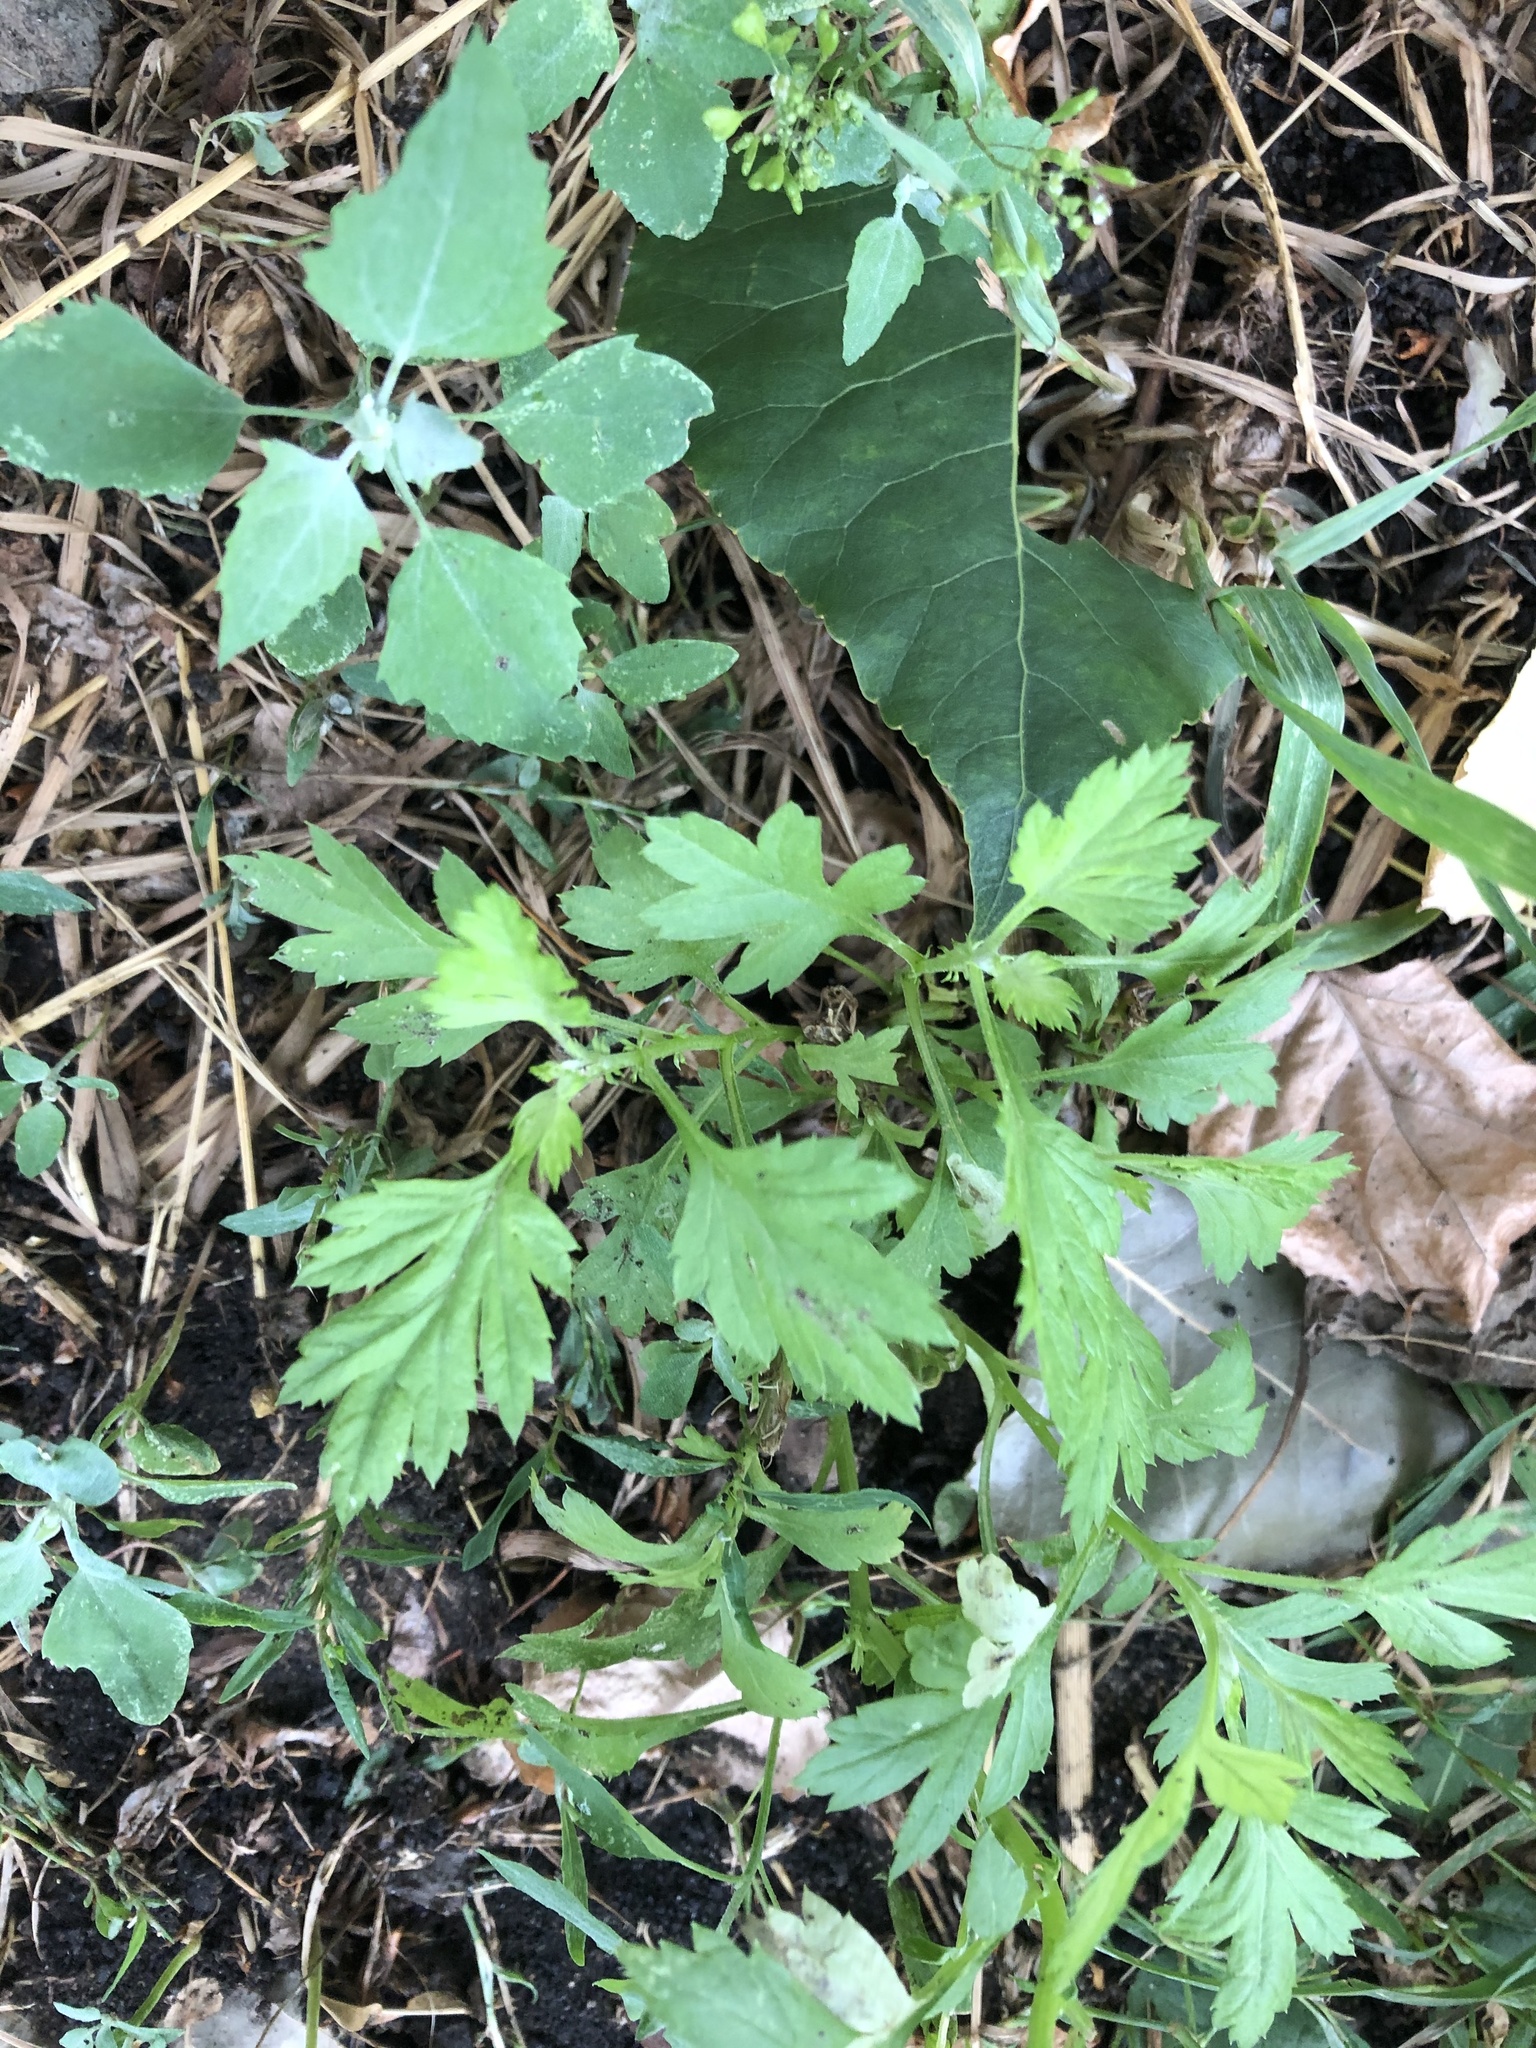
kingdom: Plantae
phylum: Tracheophyta
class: Magnoliopsida
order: Asterales
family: Asteraceae
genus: Artemisia
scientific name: Artemisia vulgaris
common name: Mugwort
